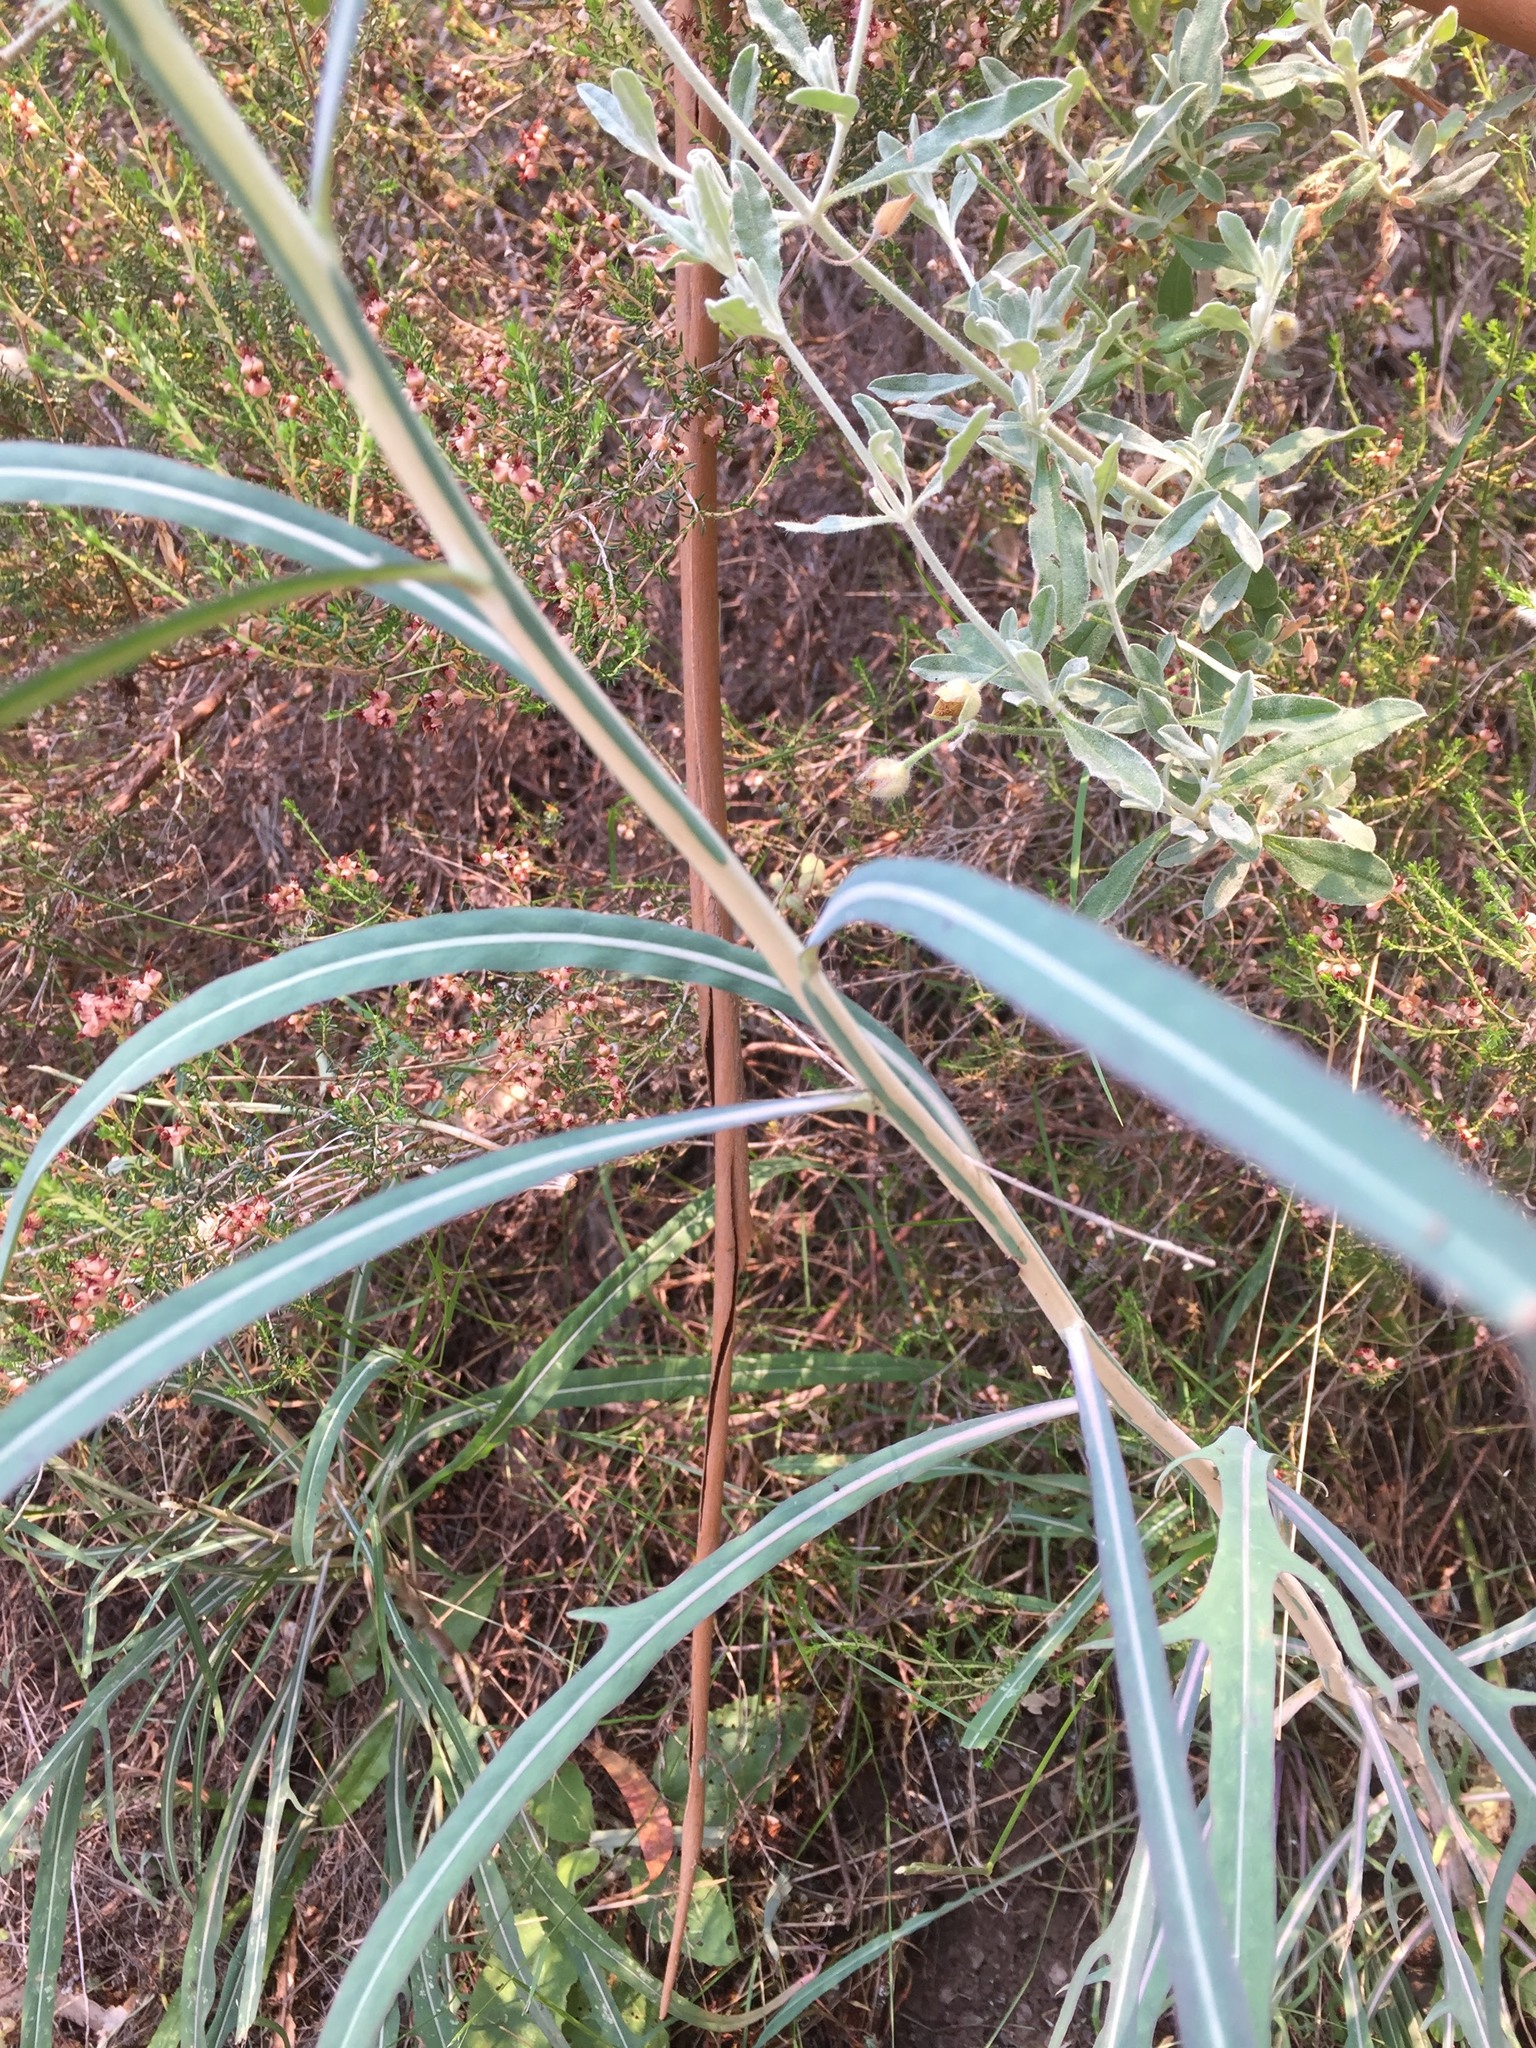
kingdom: Plantae
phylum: Tracheophyta
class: Magnoliopsida
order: Asterales
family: Asteraceae
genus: Lactuca
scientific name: Lactuca viminea
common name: Pliant lettuce
